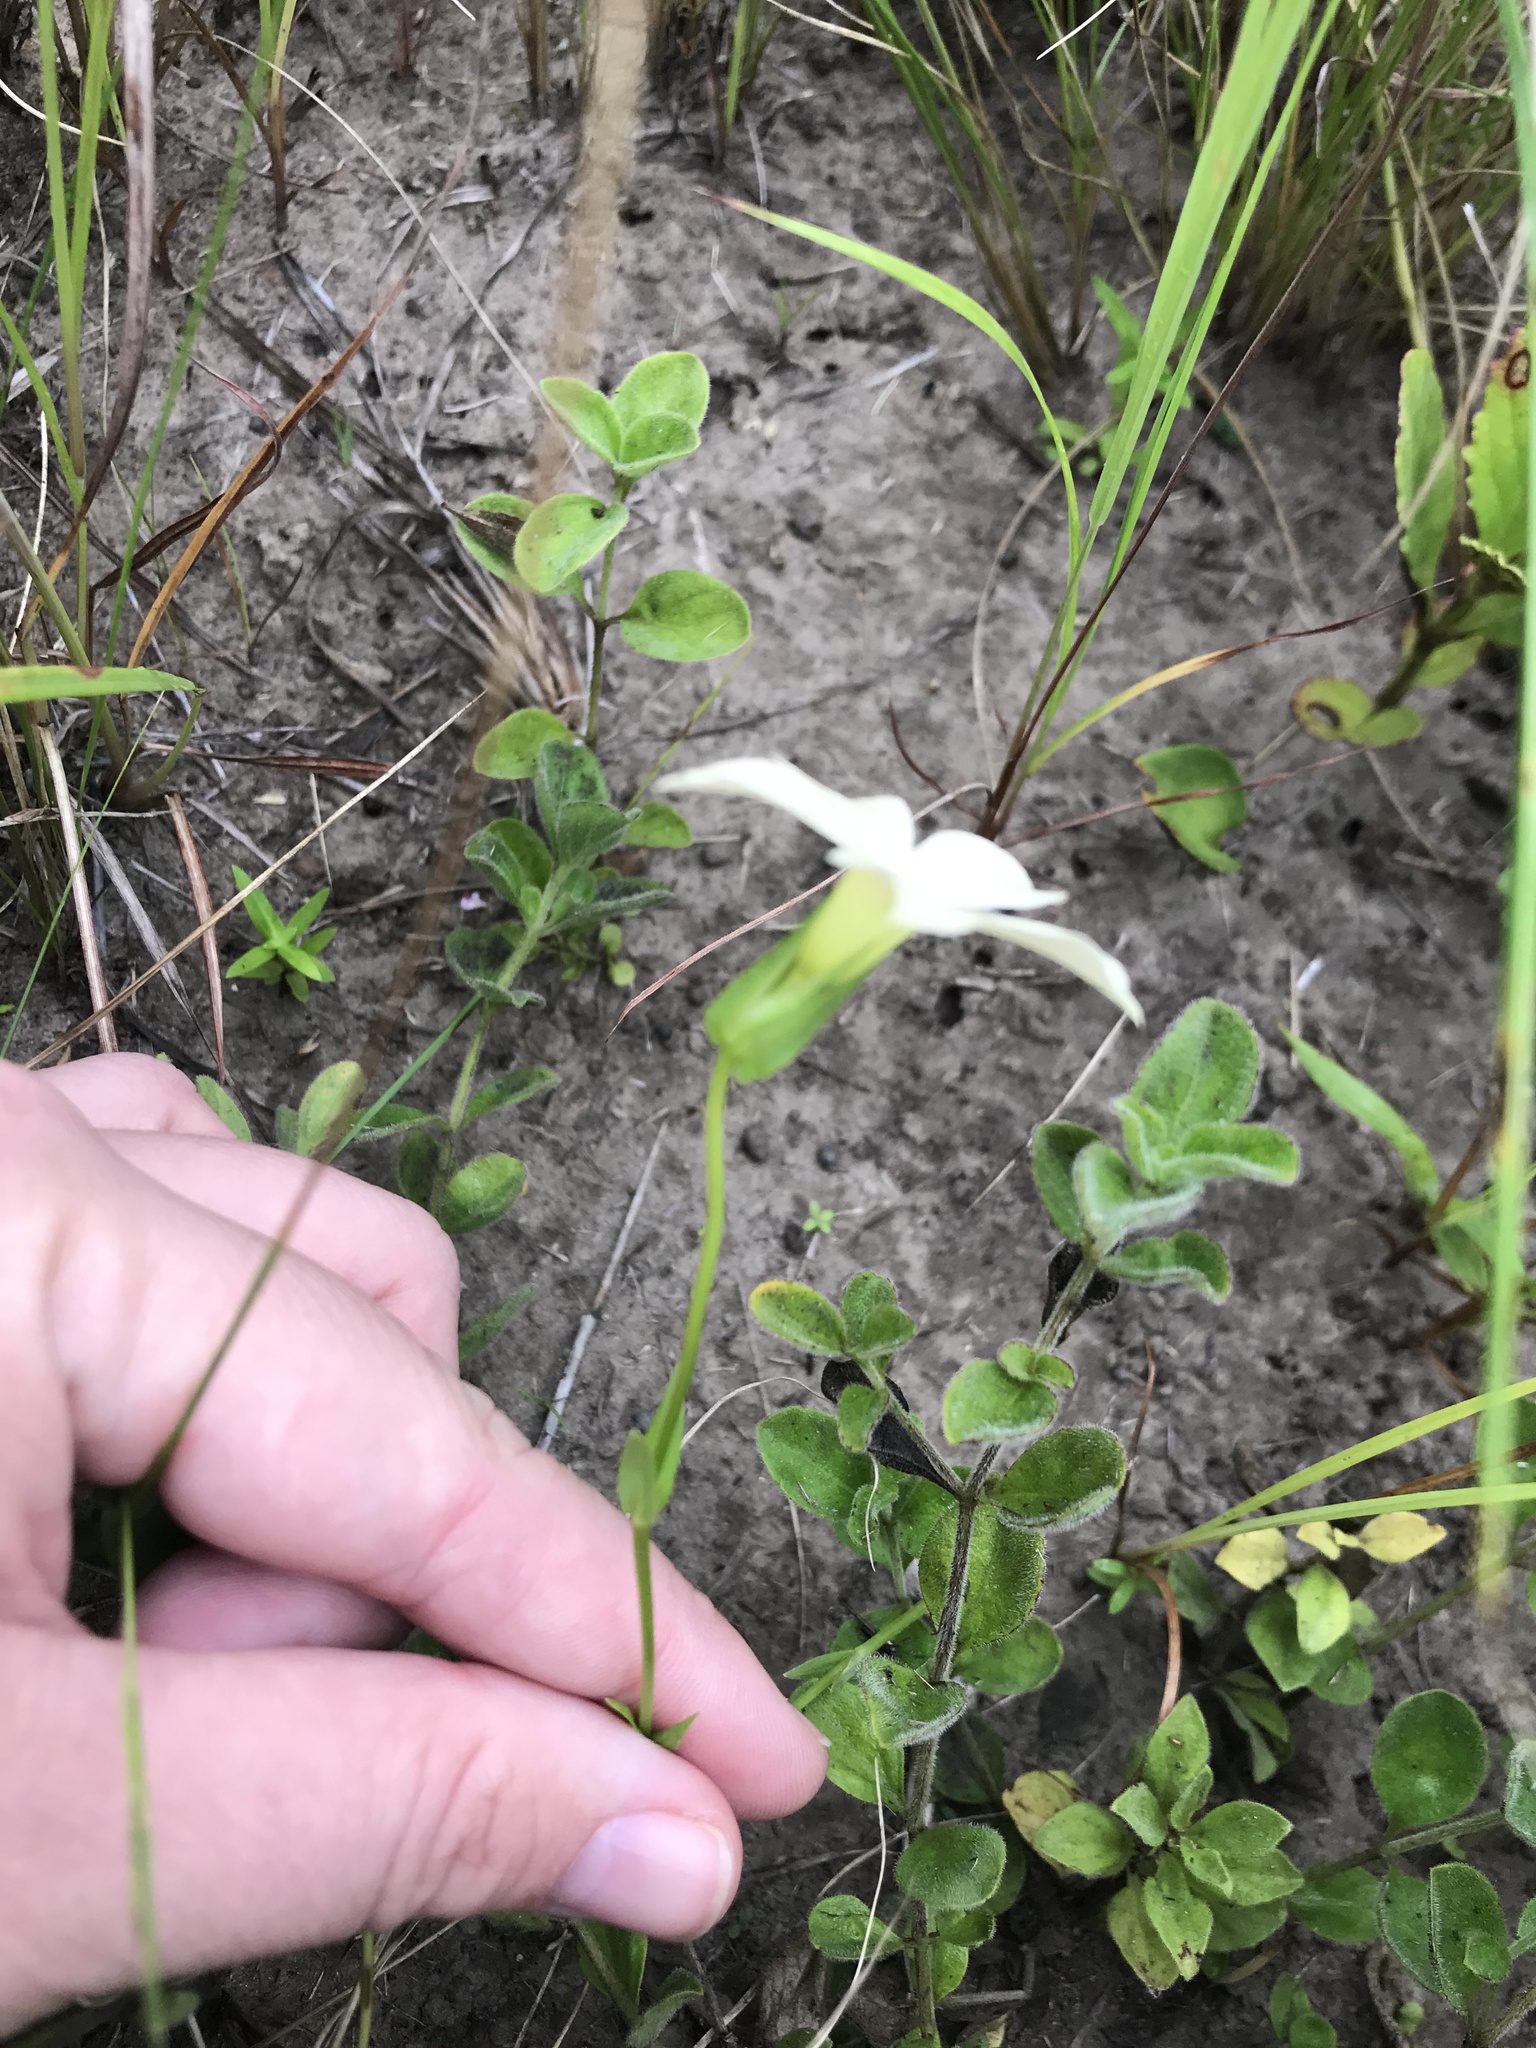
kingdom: Plantae
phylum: Tracheophyta
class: Magnoliopsida
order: Gentianales
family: Gentianaceae
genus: Exochaenium
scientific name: Exochaenium grande
